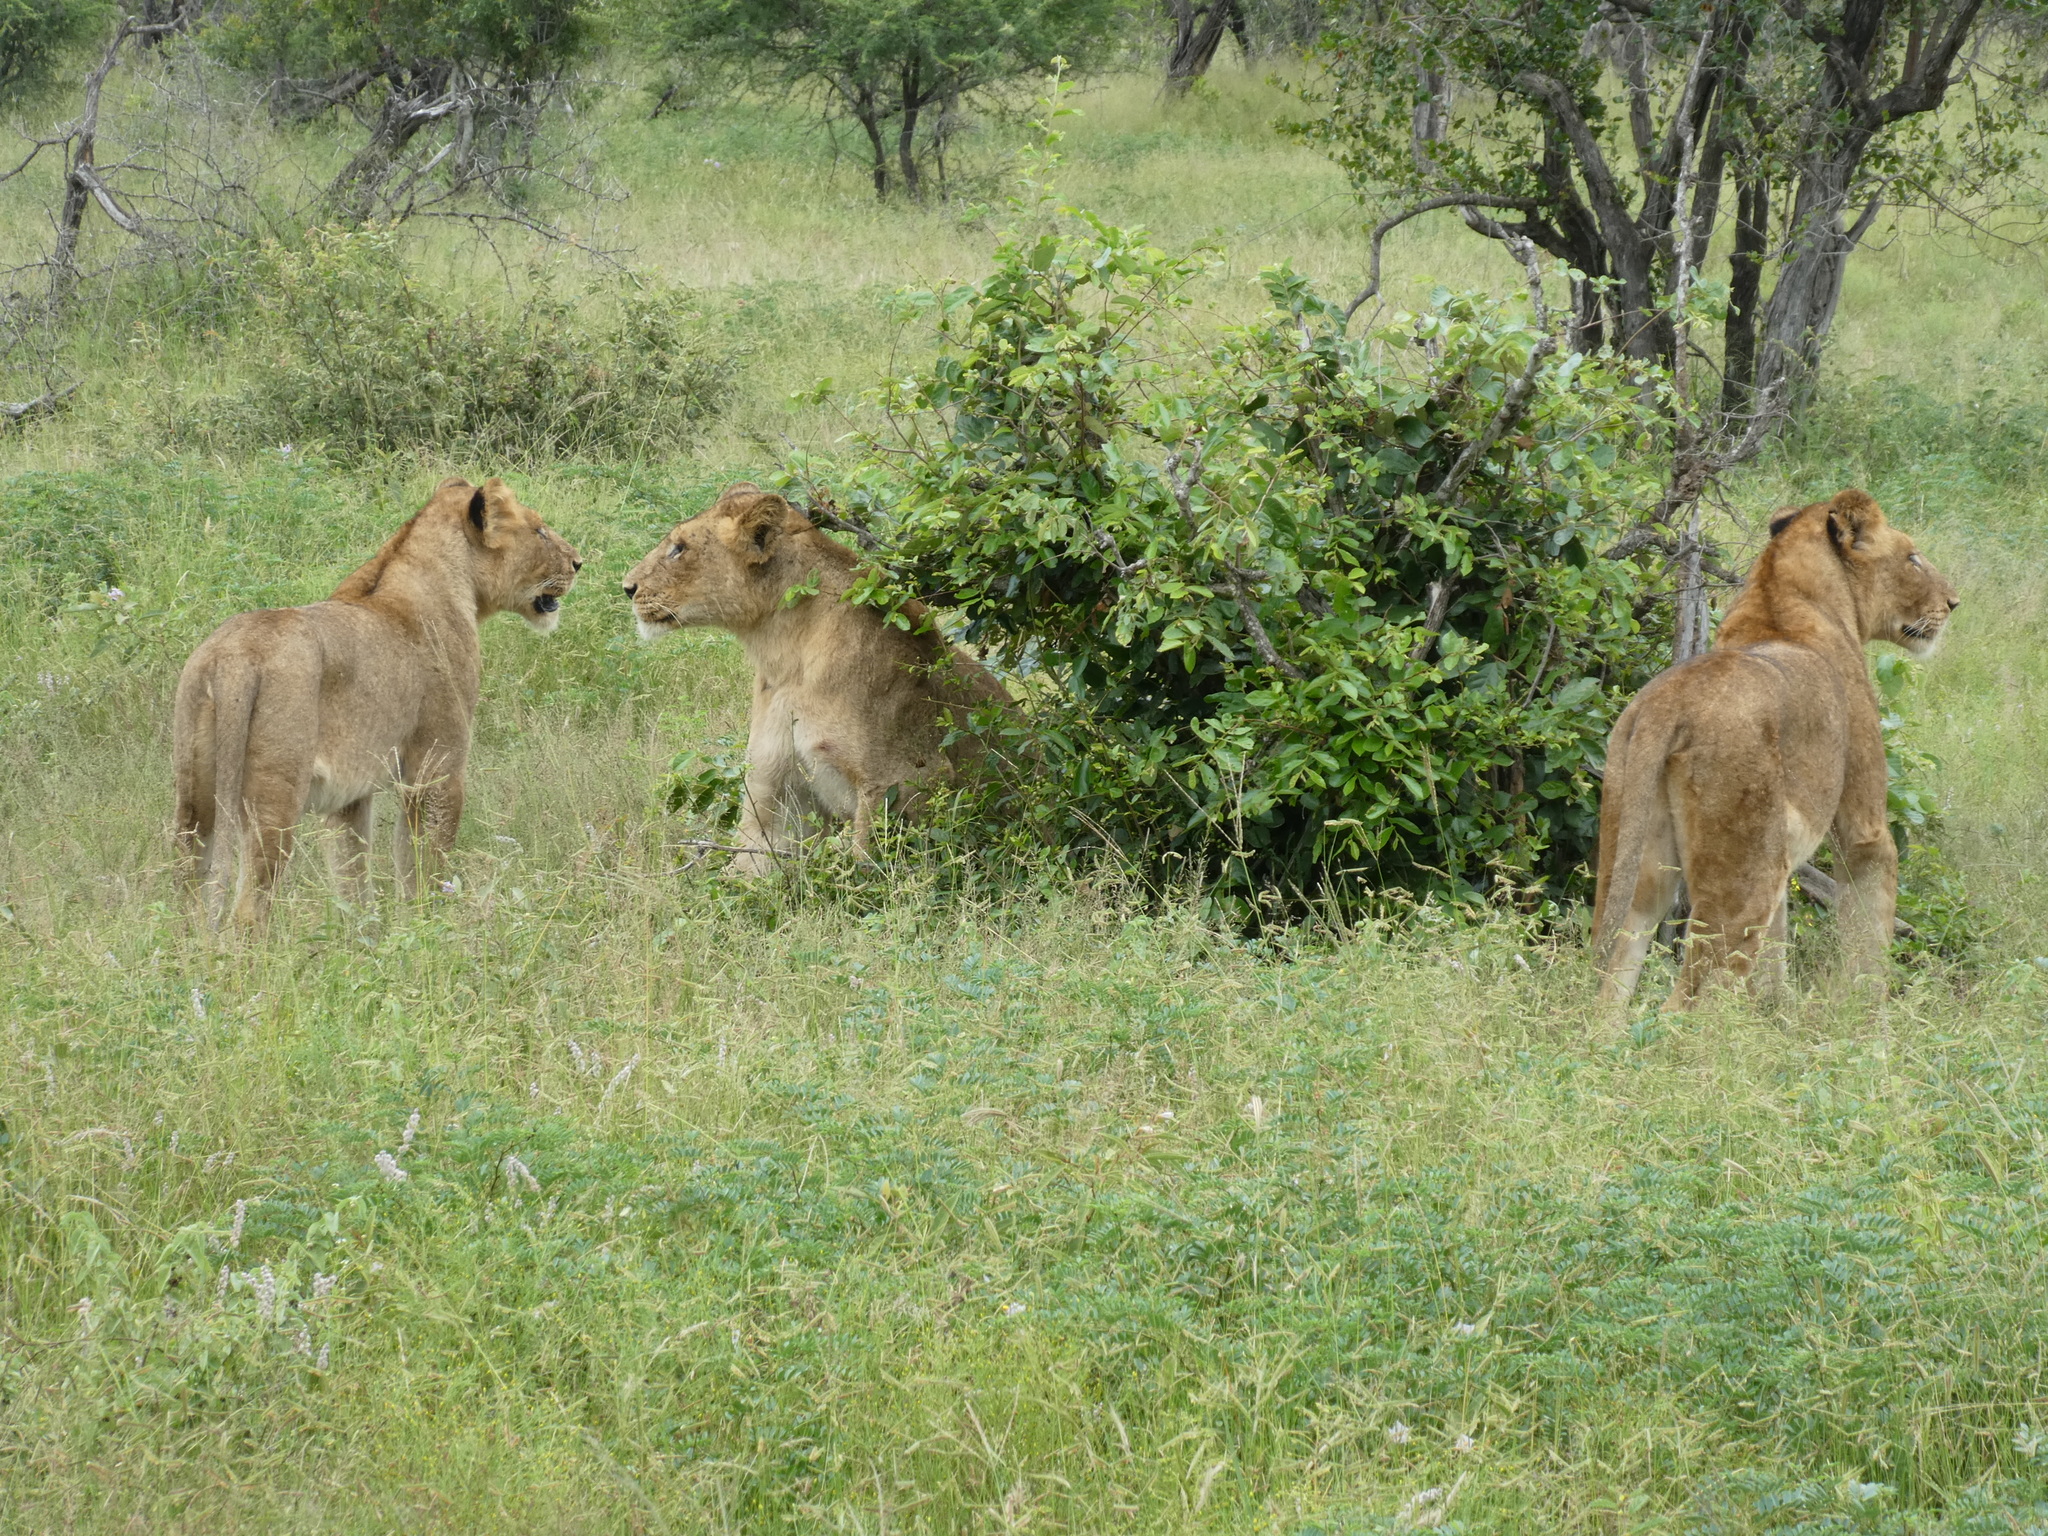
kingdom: Animalia
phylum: Chordata
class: Mammalia
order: Carnivora
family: Felidae
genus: Panthera
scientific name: Panthera leo
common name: Lion
